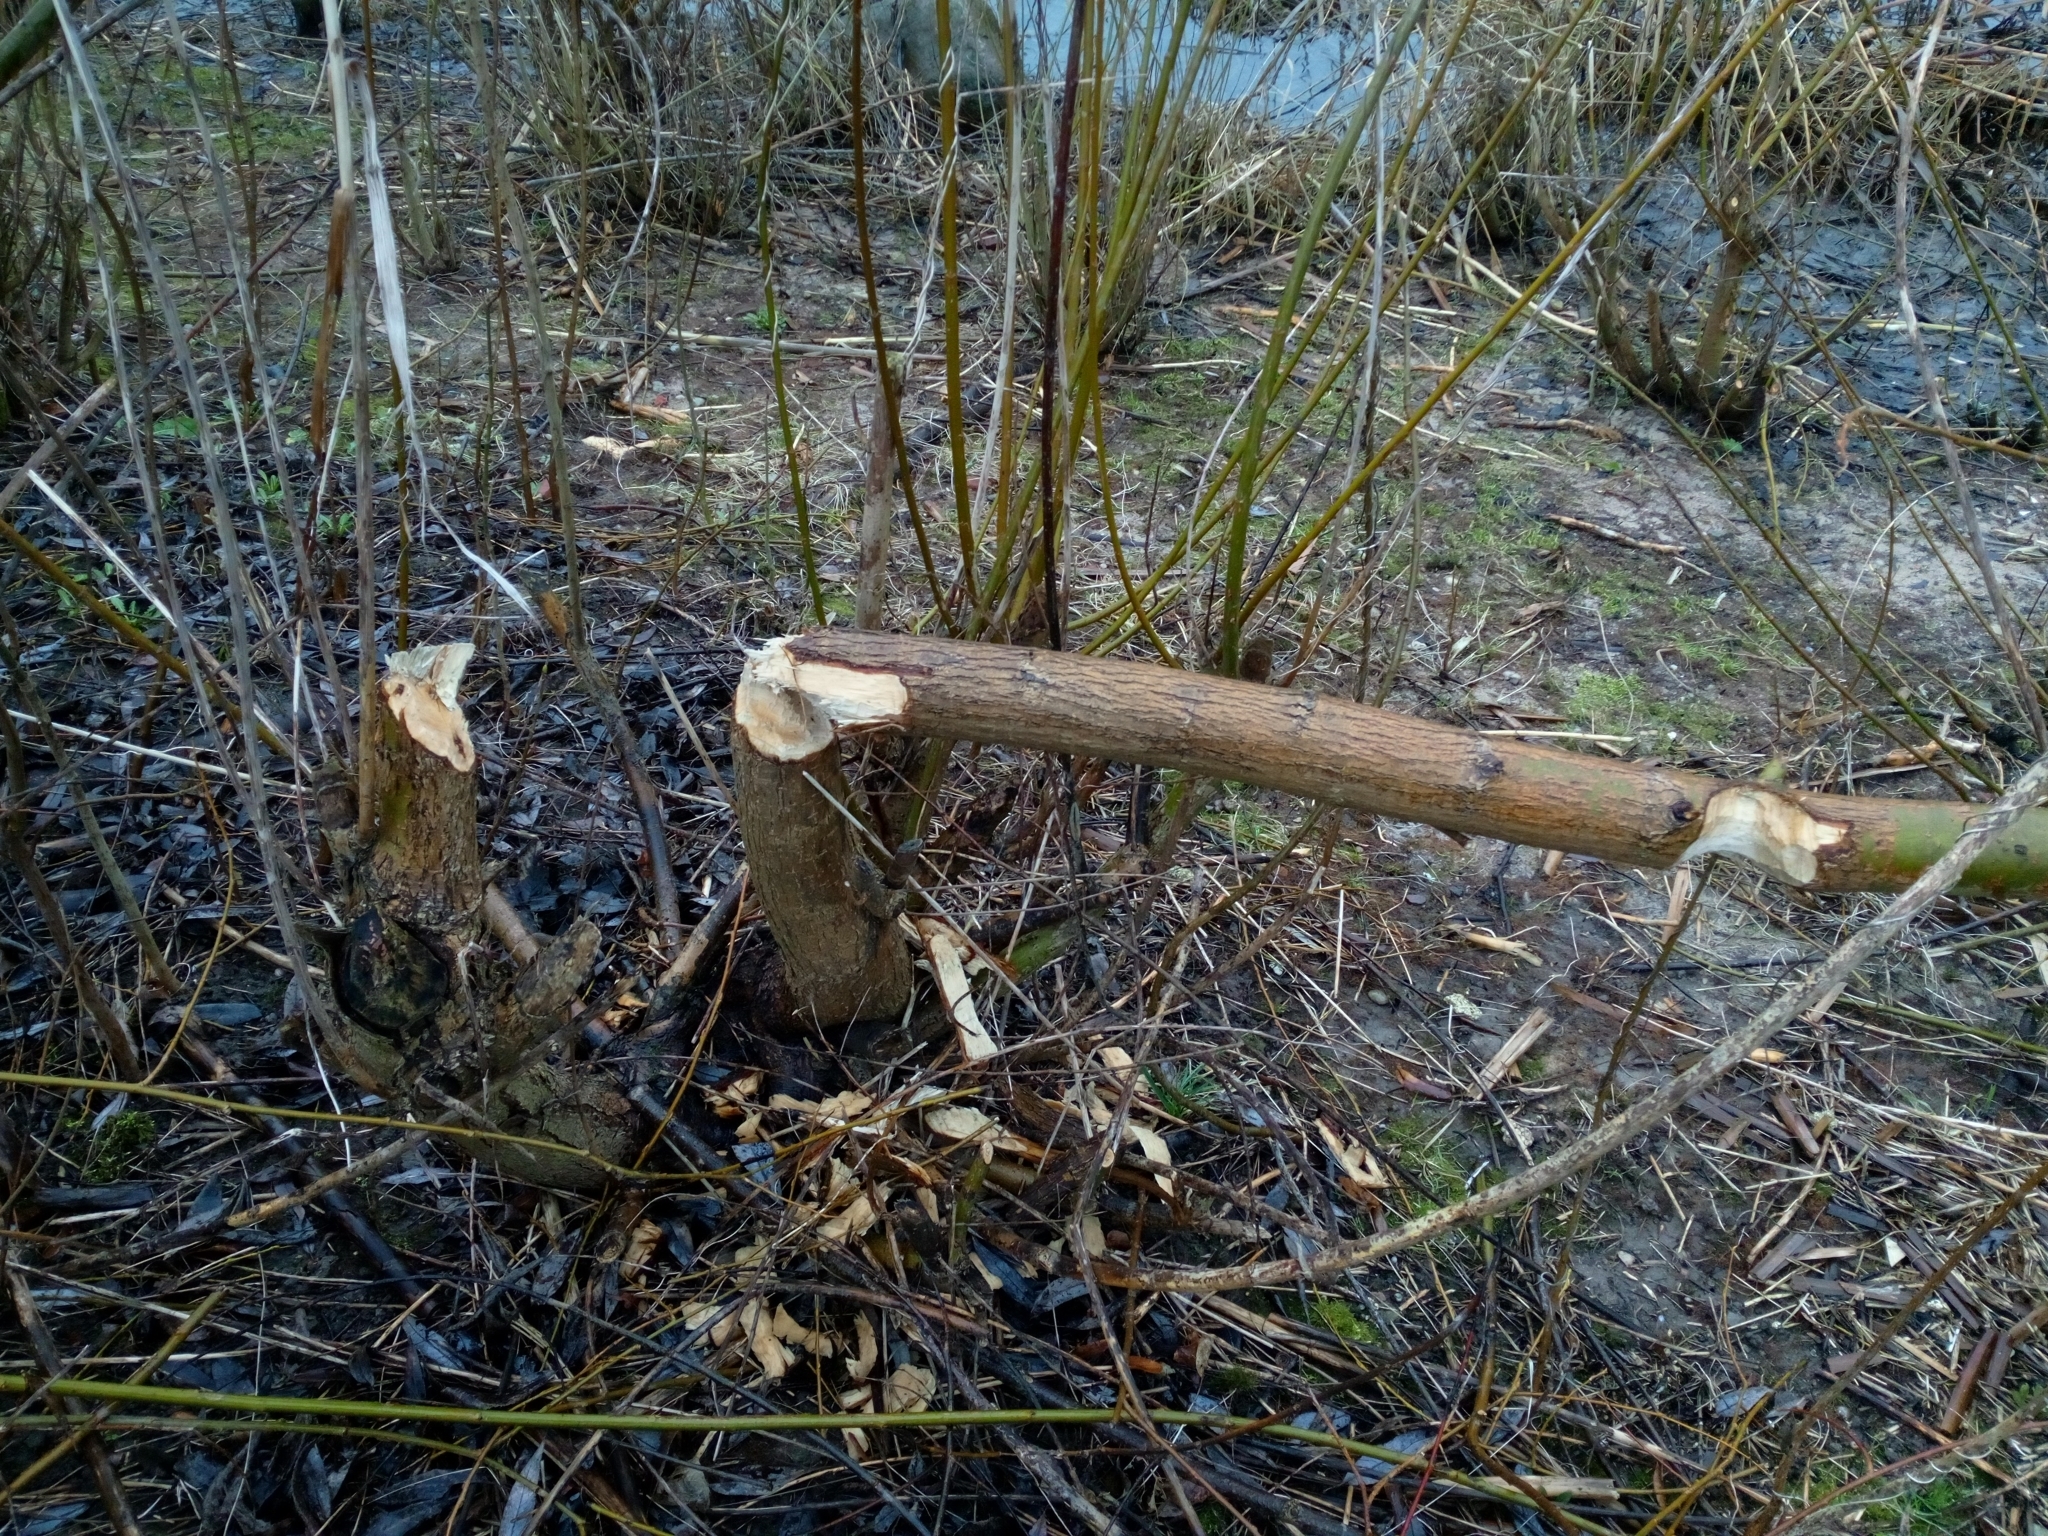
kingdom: Animalia
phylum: Chordata
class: Mammalia
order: Rodentia
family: Castoridae
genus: Castor
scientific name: Castor fiber
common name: Eurasian beaver
